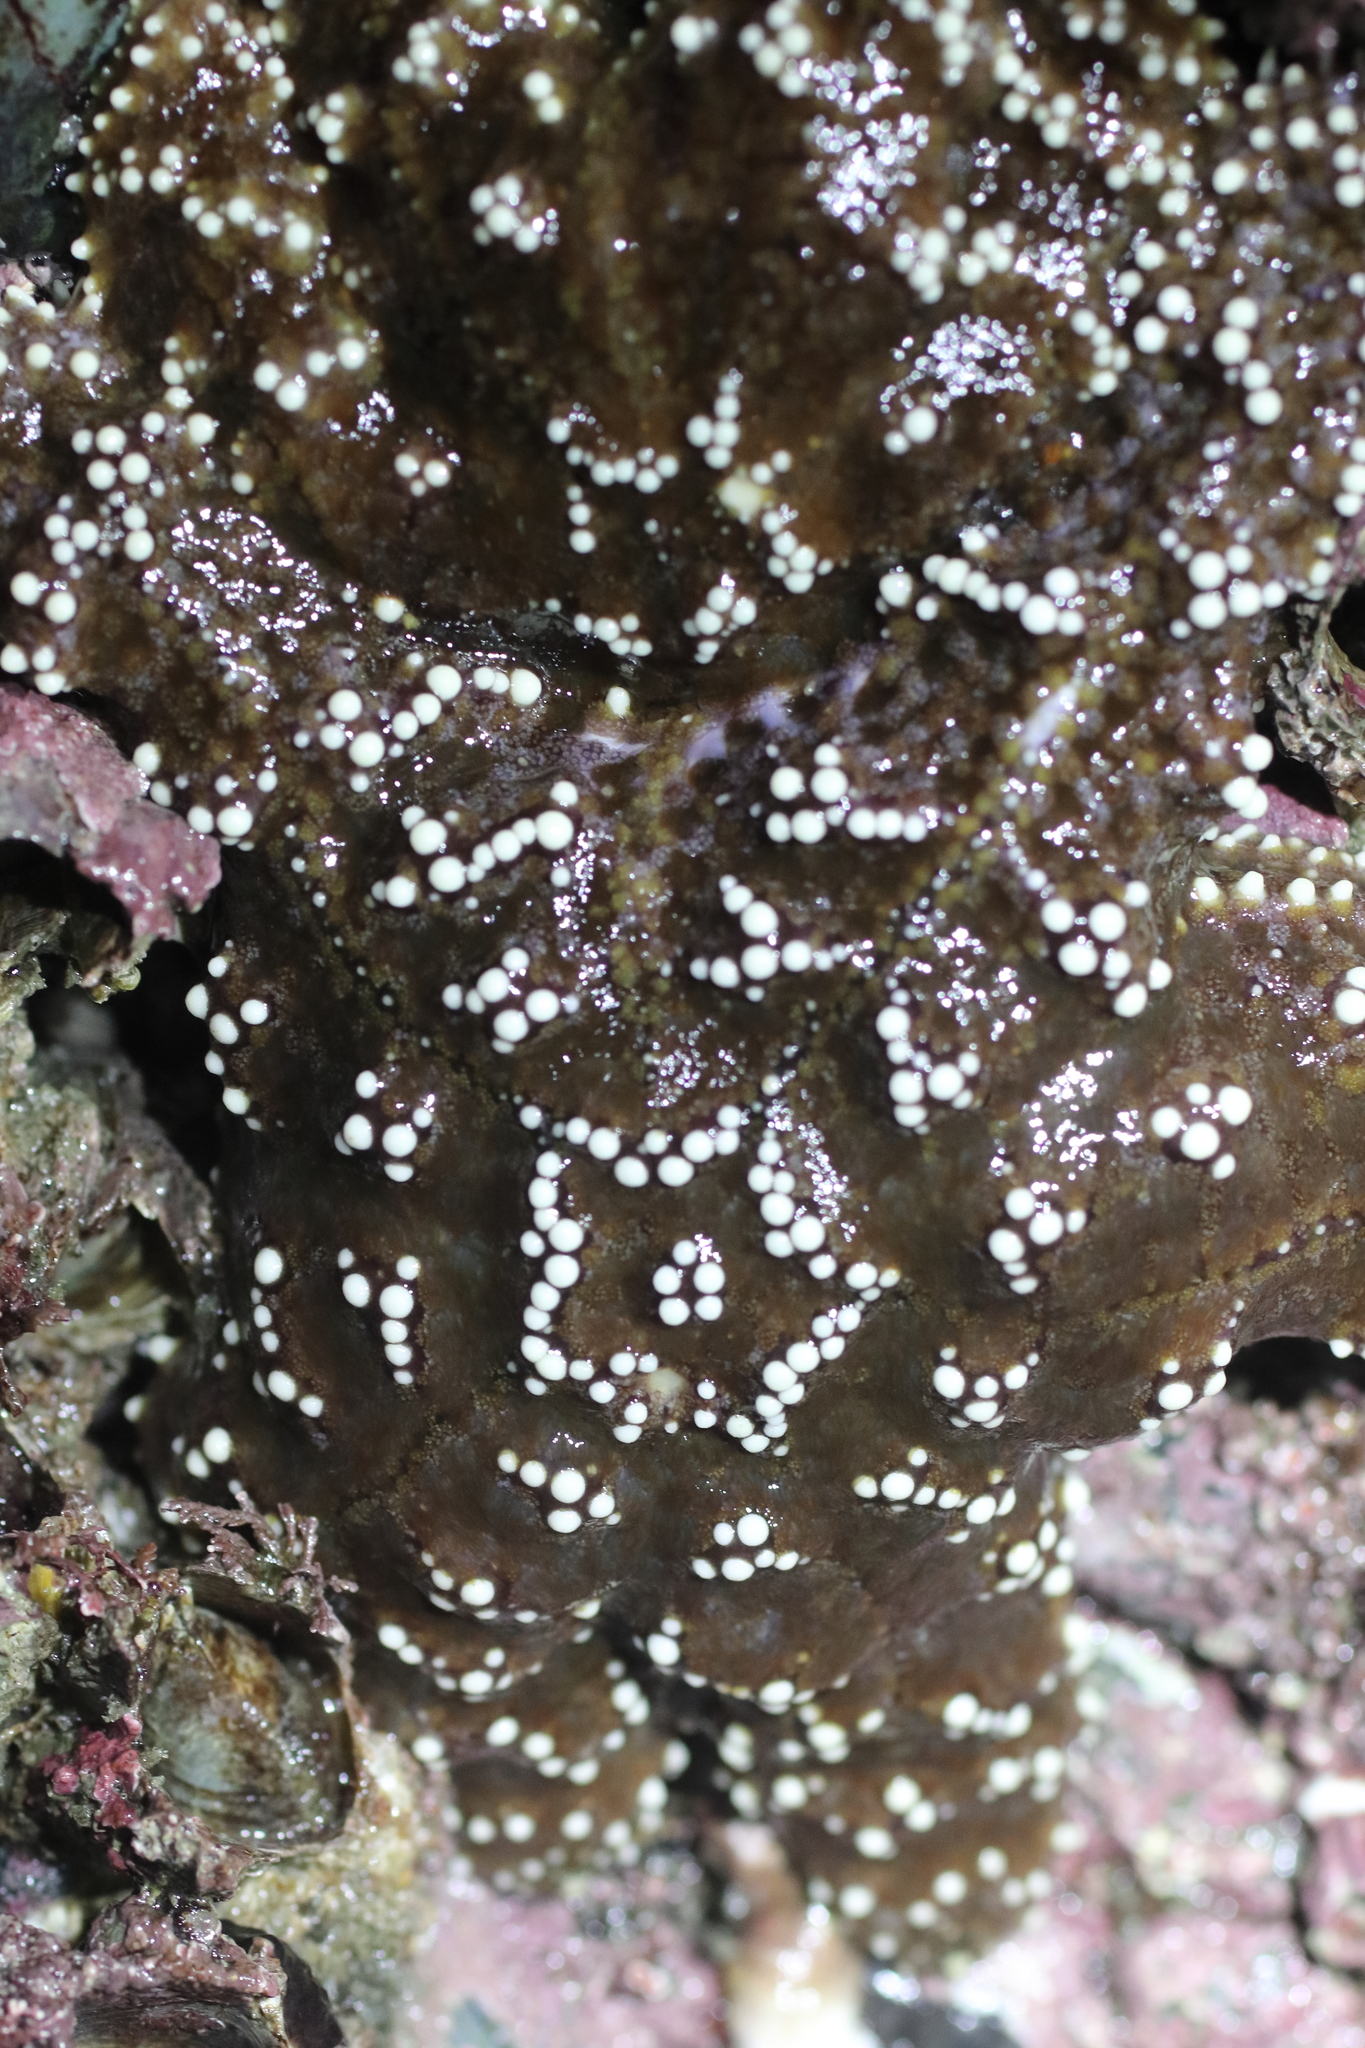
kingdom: Animalia
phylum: Echinodermata
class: Asteroidea
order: Forcipulatida
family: Asteriidae
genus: Pisaster
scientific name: Pisaster ochraceus
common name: Ochre stars
